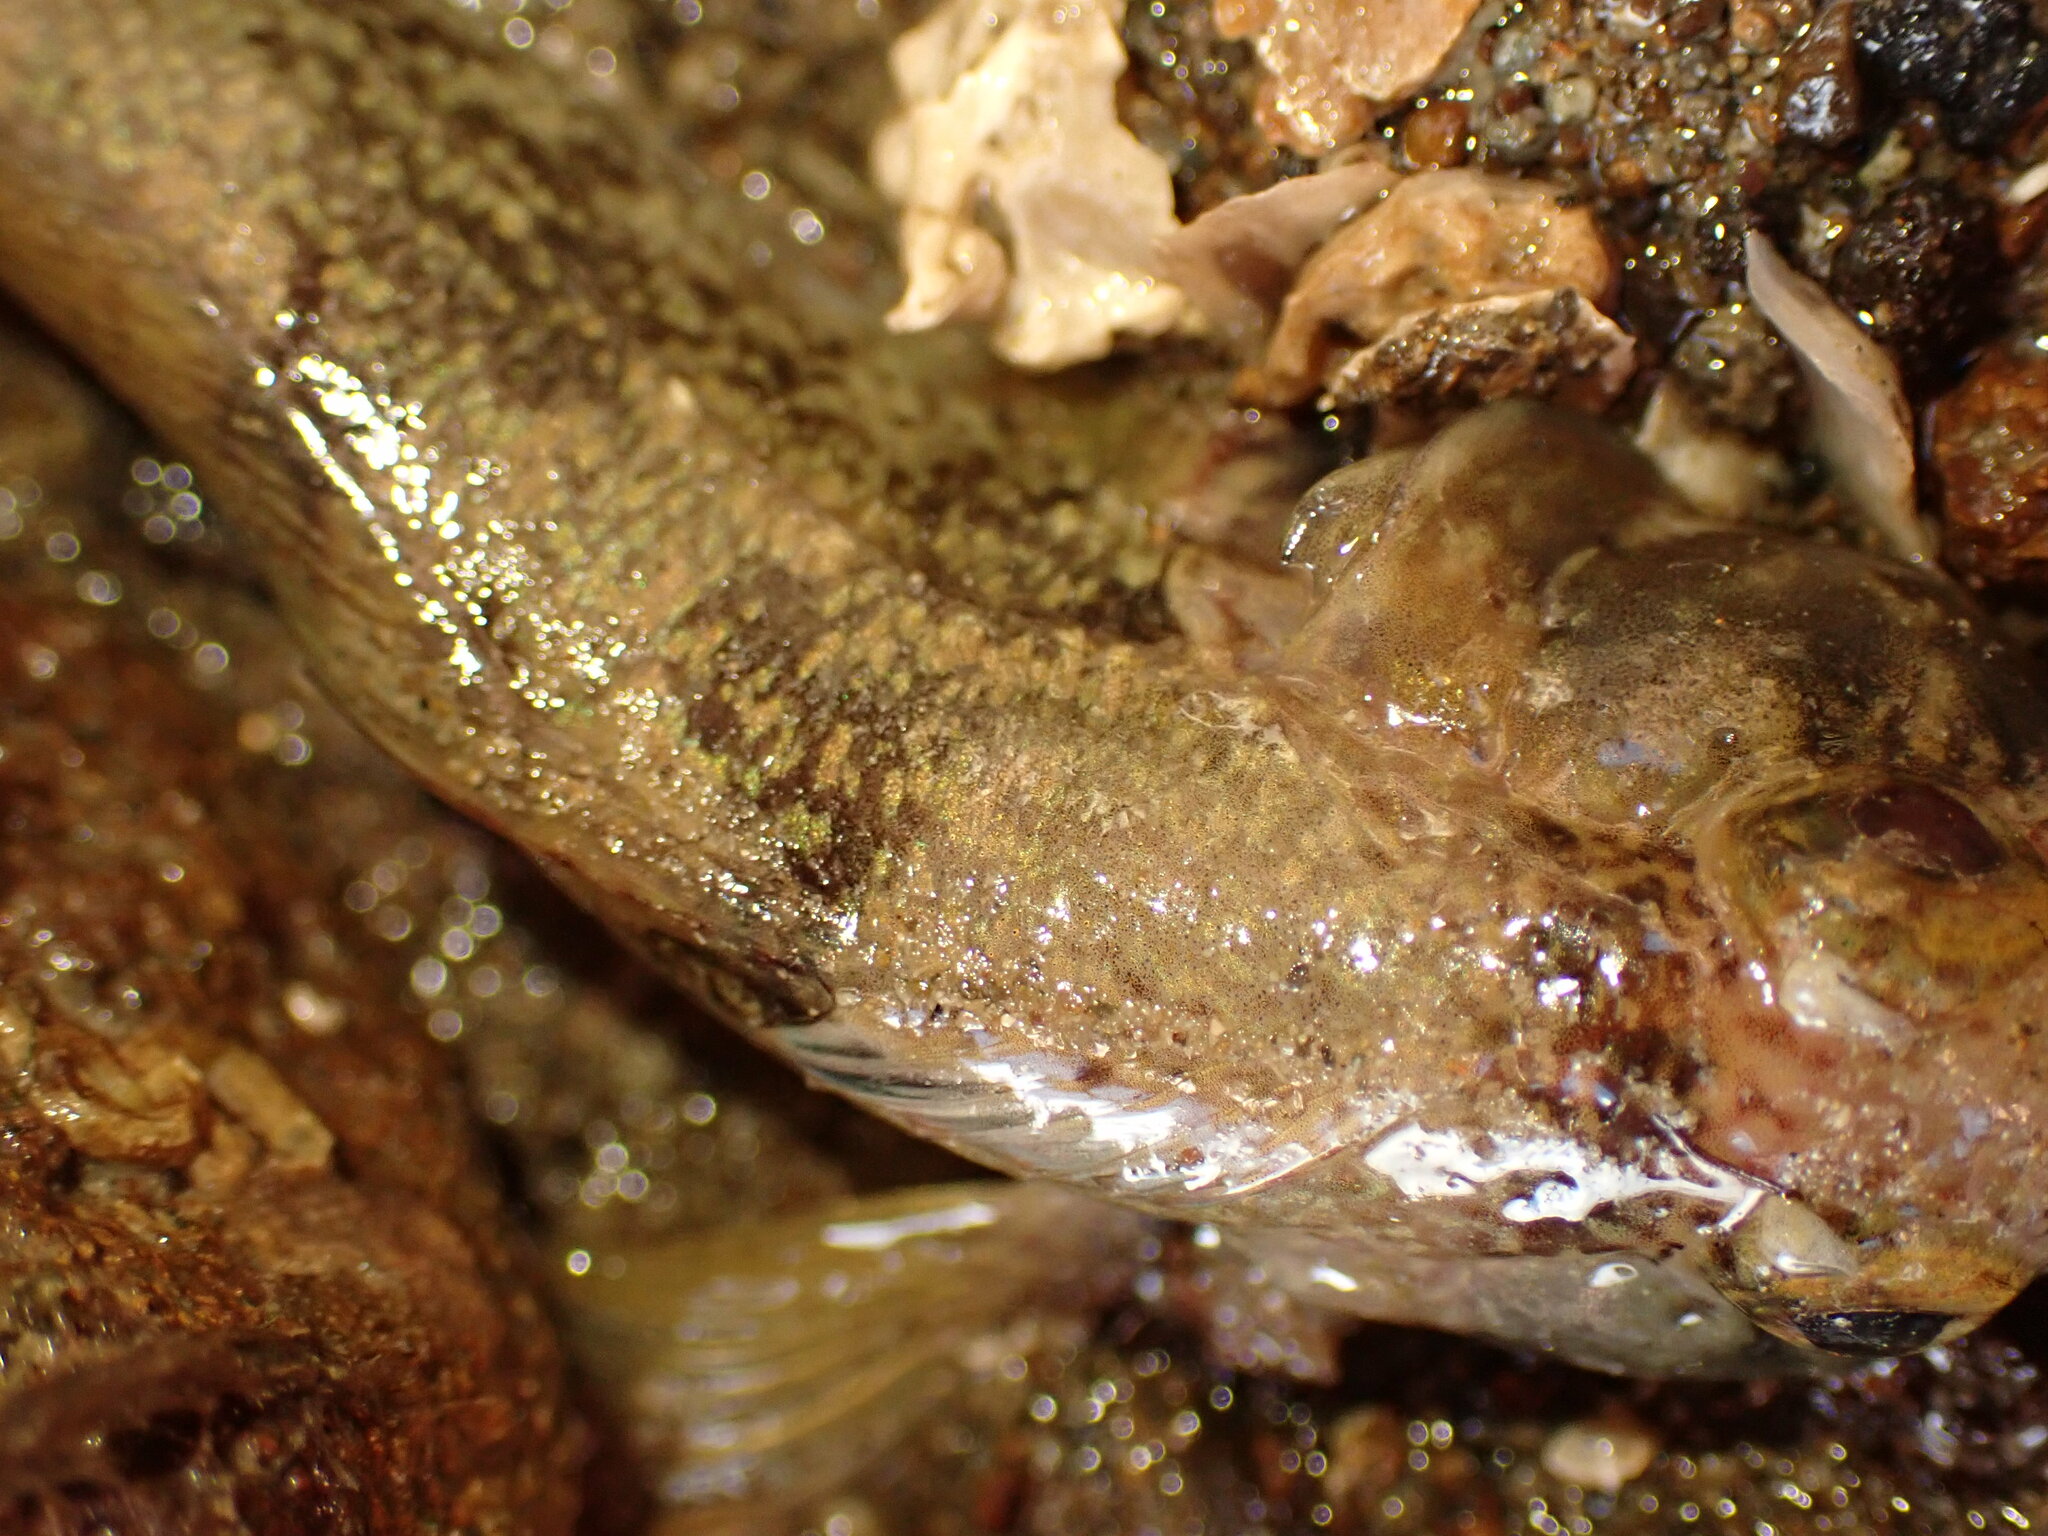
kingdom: Animalia
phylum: Chordata
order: Perciformes
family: Tripterygiidae
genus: Forsterygion
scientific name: Forsterygion capito
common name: Spotted robust triplefin
